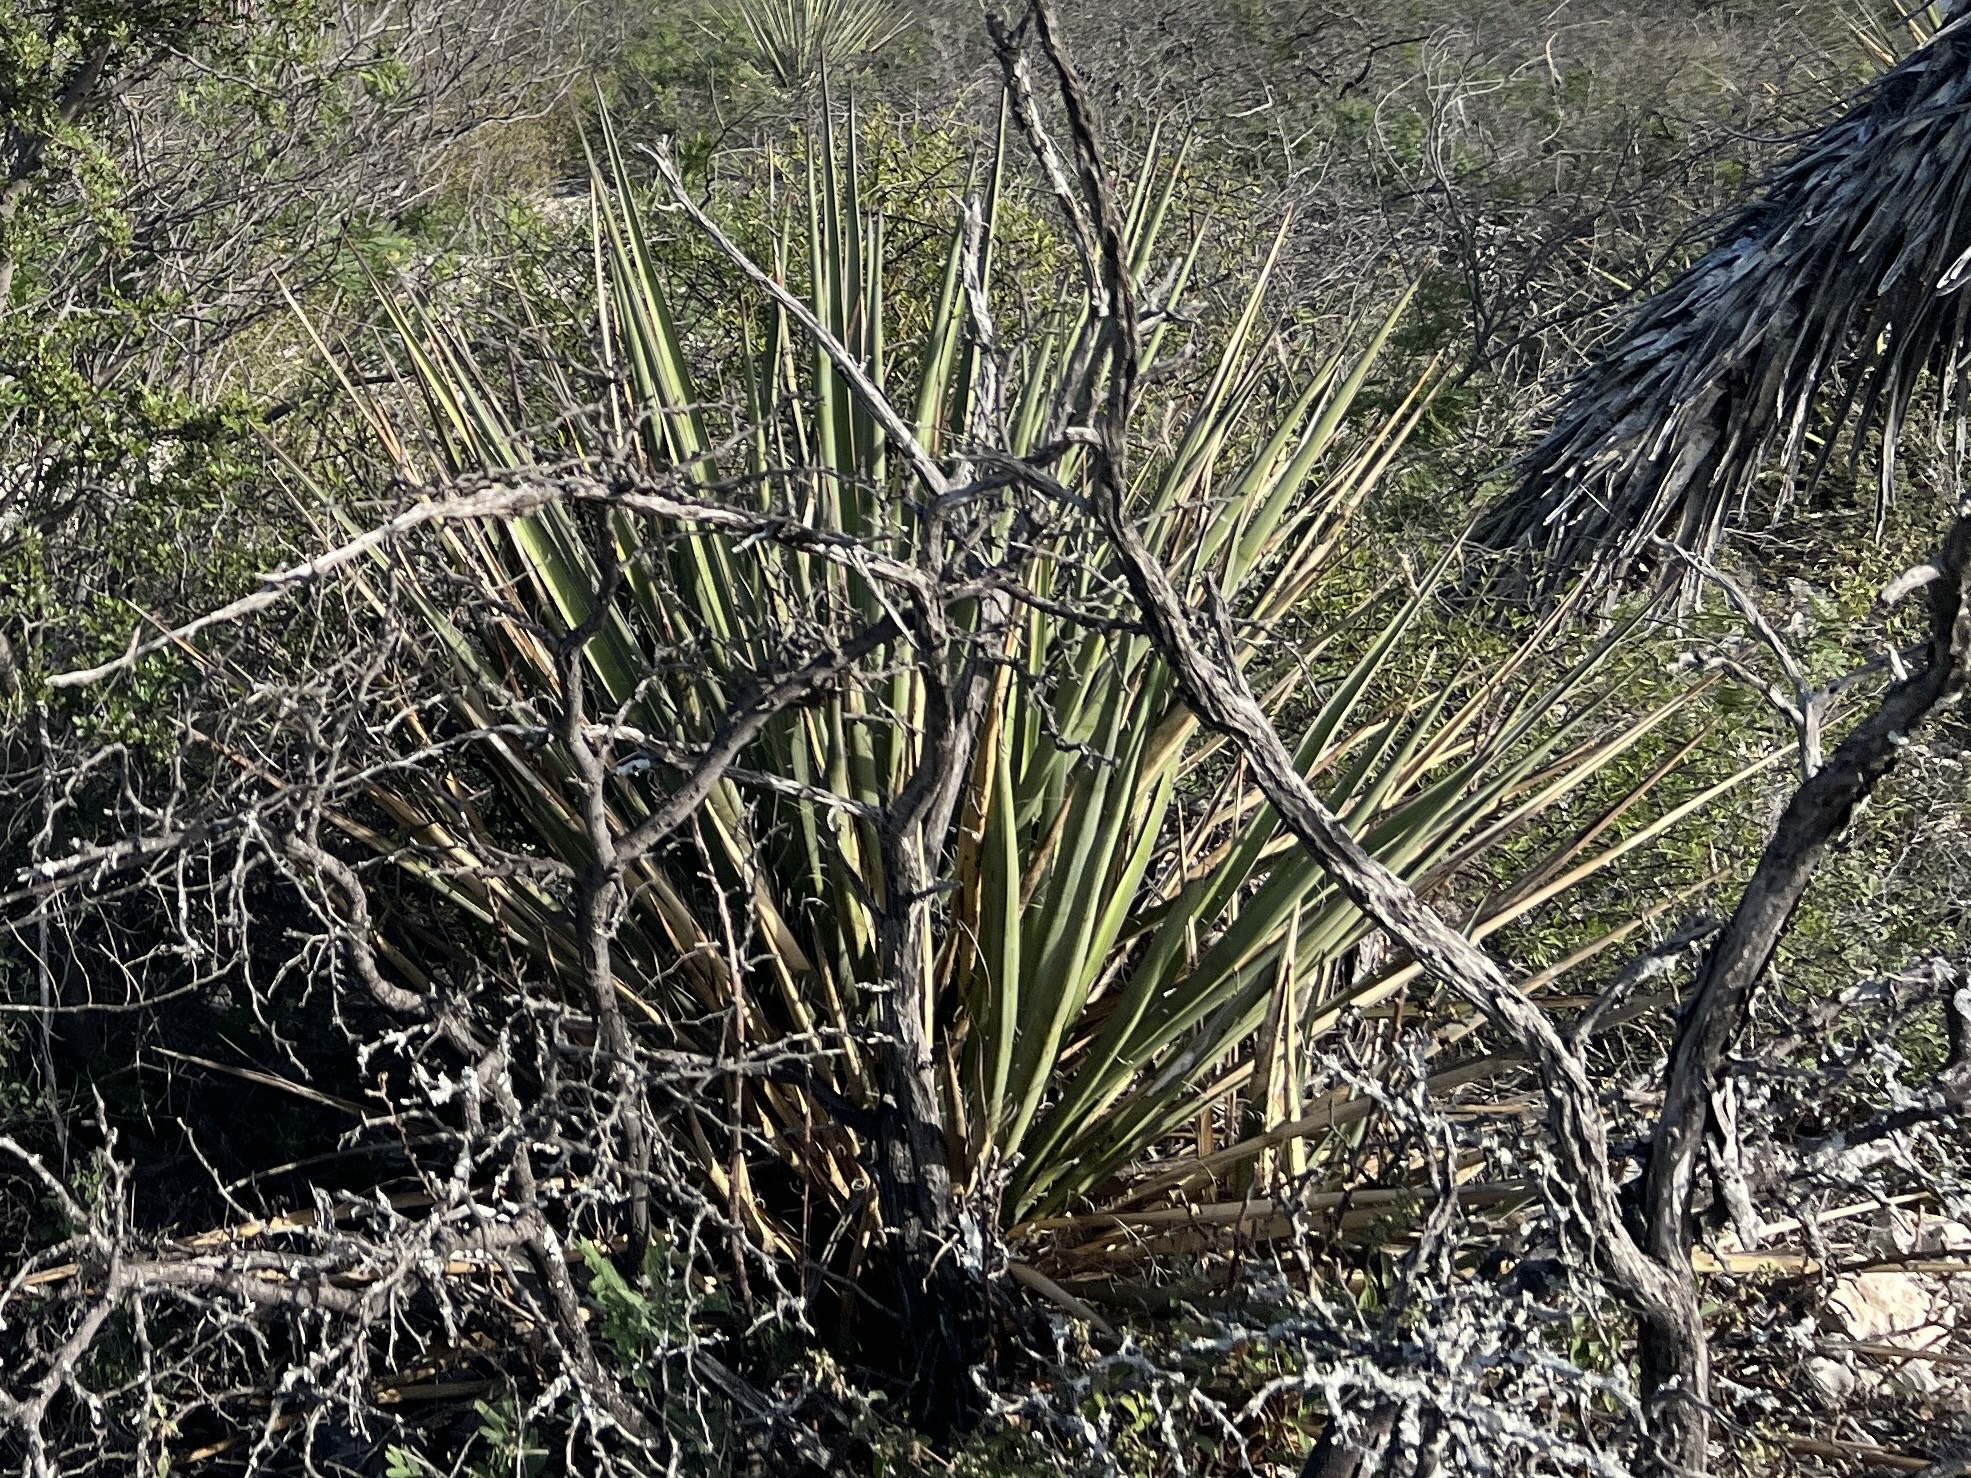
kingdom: Plantae
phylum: Tracheophyta
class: Liliopsida
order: Asparagales
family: Asparagaceae
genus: Yucca
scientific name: Yucca treculiana
